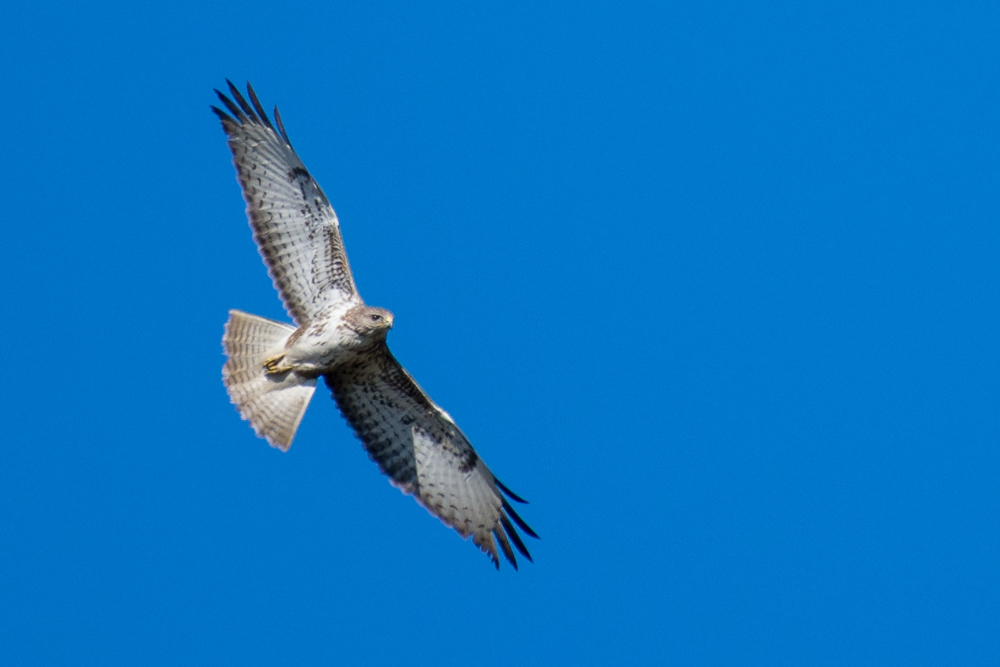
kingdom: Animalia
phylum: Chordata
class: Aves
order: Accipitriformes
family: Accipitridae
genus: Buteo
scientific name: Buteo buteo
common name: Common buzzard
